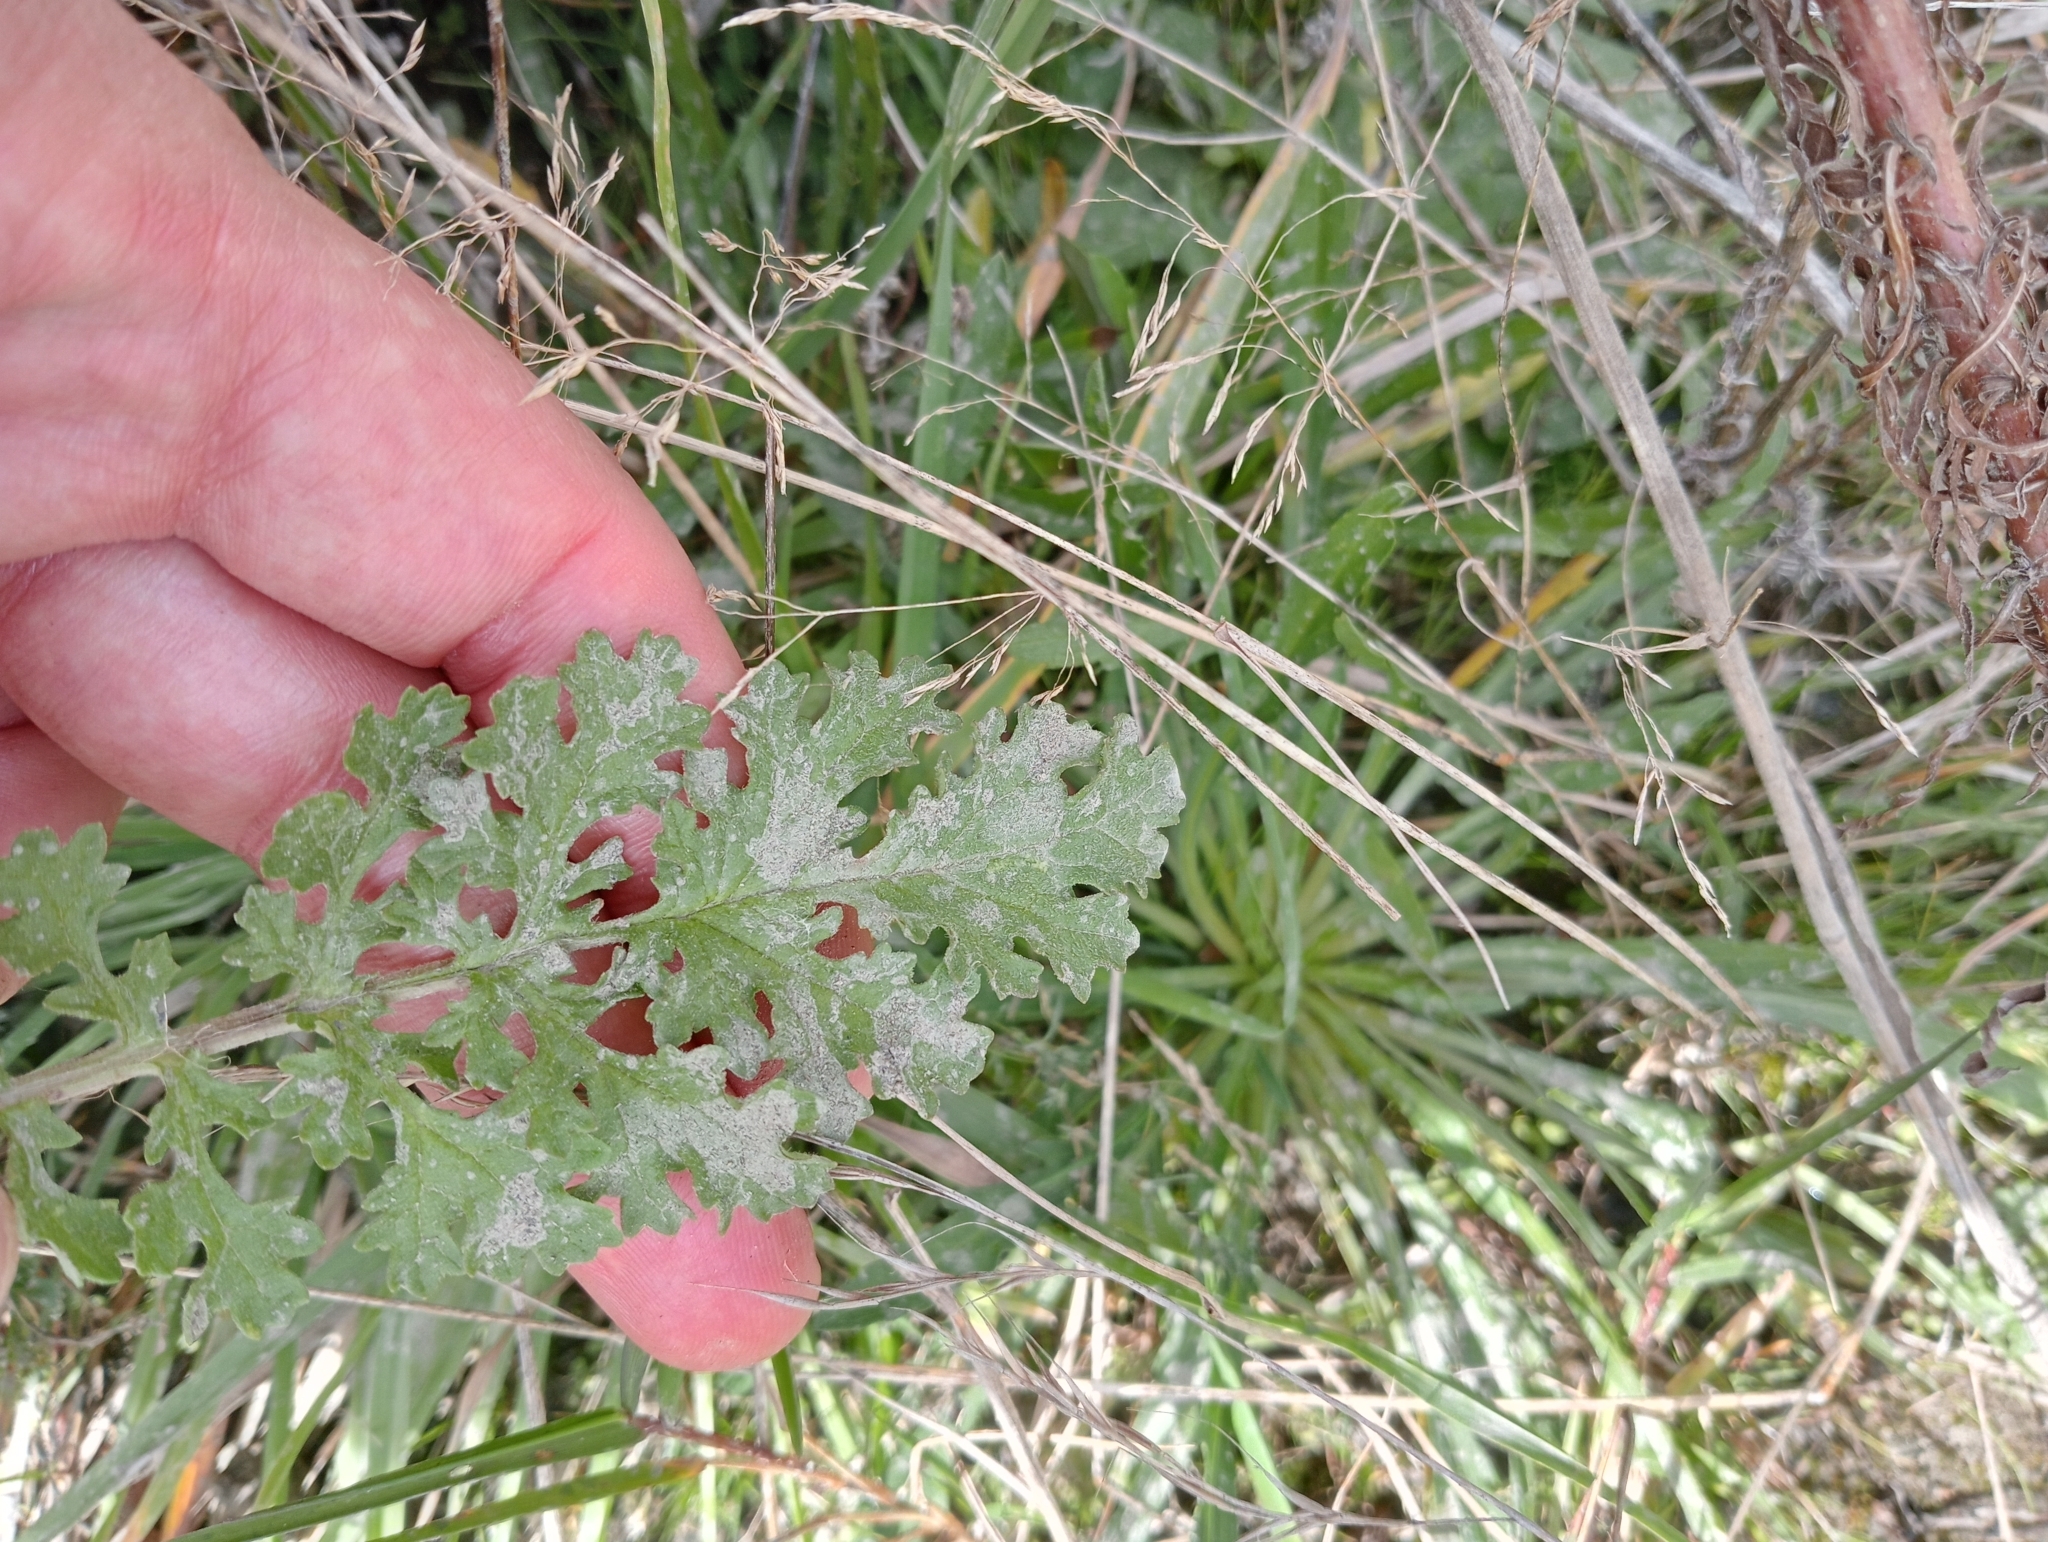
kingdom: Plantae
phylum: Tracheophyta
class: Magnoliopsida
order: Asterales
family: Asteraceae
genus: Jacobaea
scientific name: Jacobaea vulgaris
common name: Stinking willie
